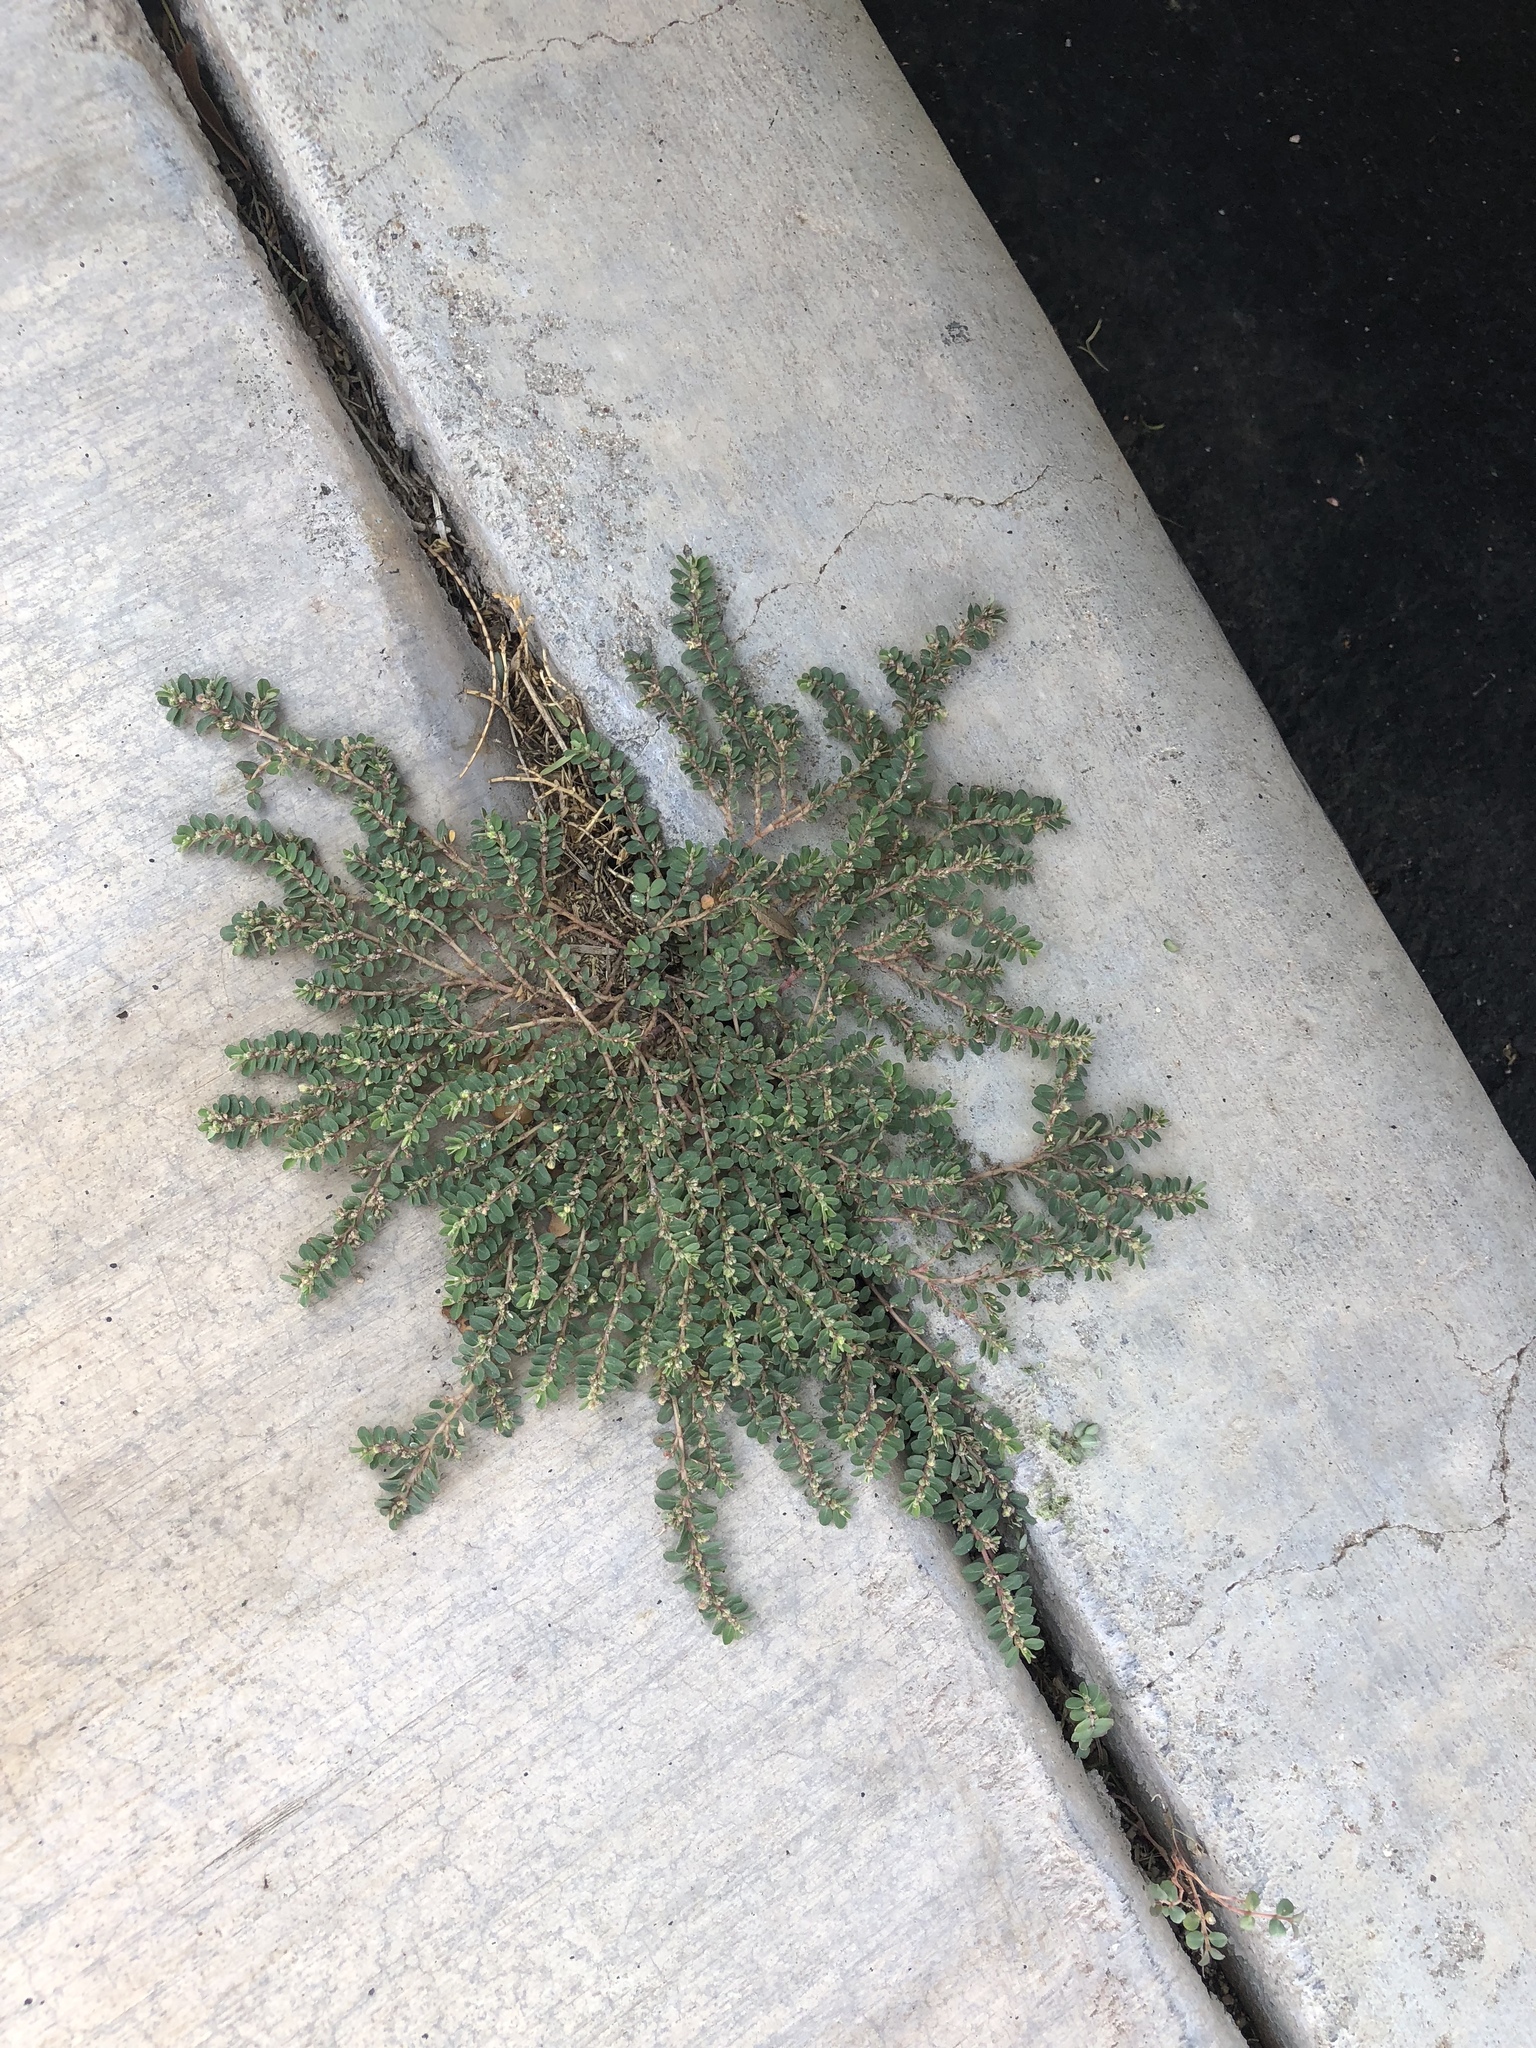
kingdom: Plantae
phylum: Tracheophyta
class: Magnoliopsida
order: Malpighiales
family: Euphorbiaceae
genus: Euphorbia
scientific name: Euphorbia prostrata
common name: Prostrate sandmat
